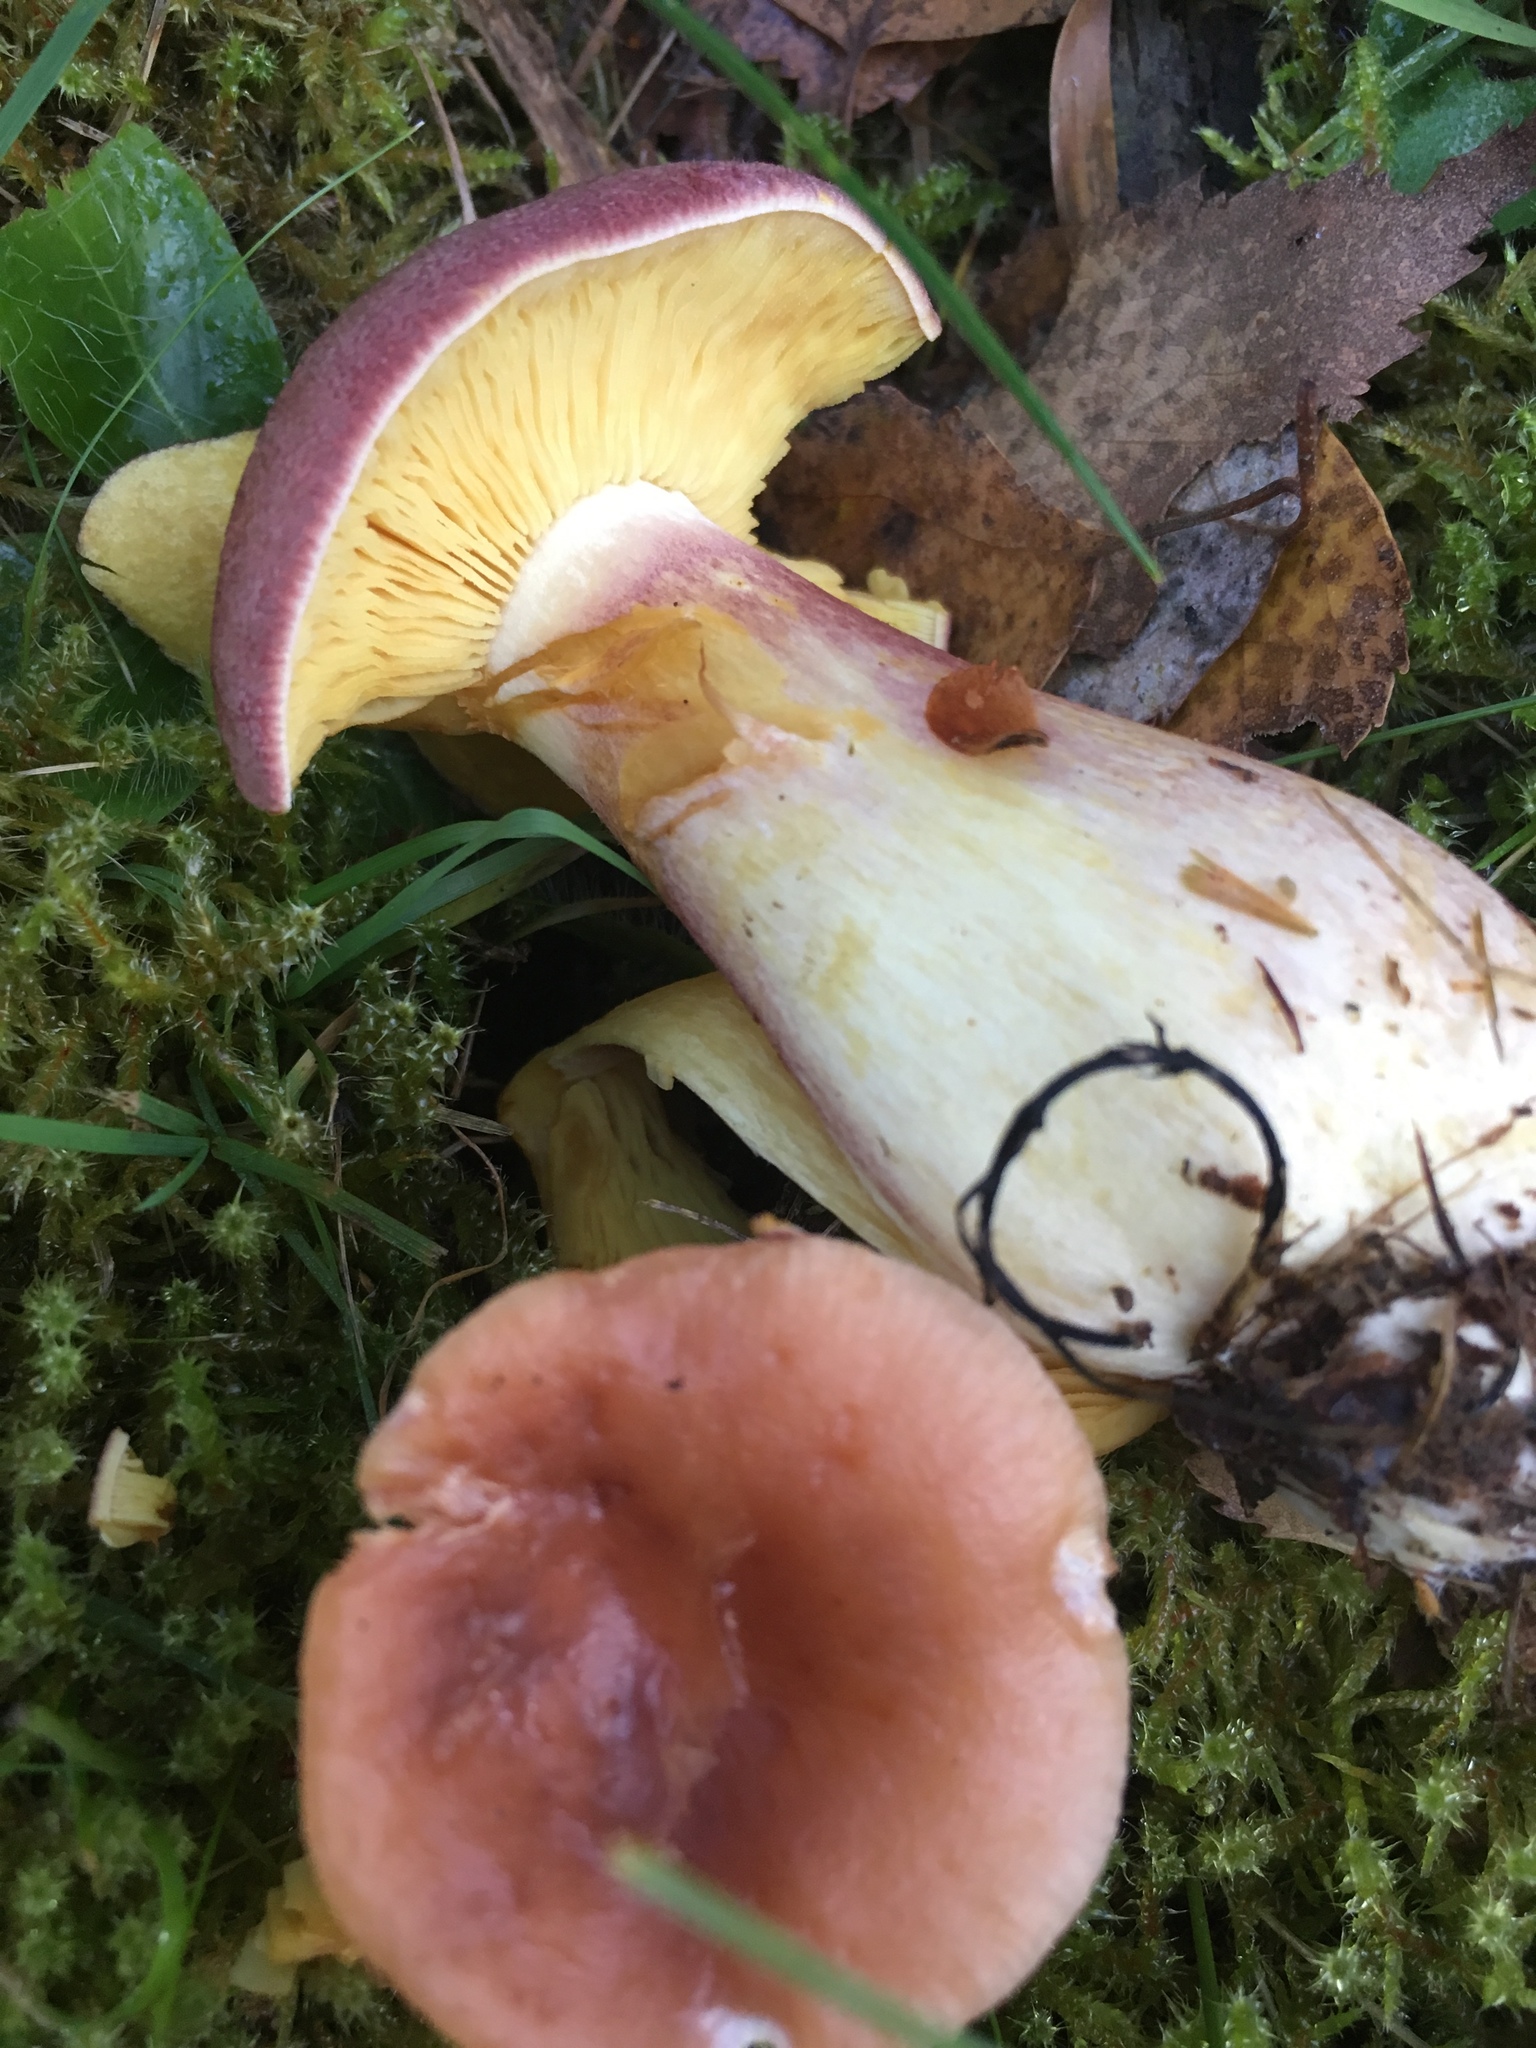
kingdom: Fungi
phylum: Basidiomycota
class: Agaricomycetes
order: Agaricales
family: Tricholomataceae
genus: Tricholomopsis
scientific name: Tricholomopsis rutilans
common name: Plums and custard
